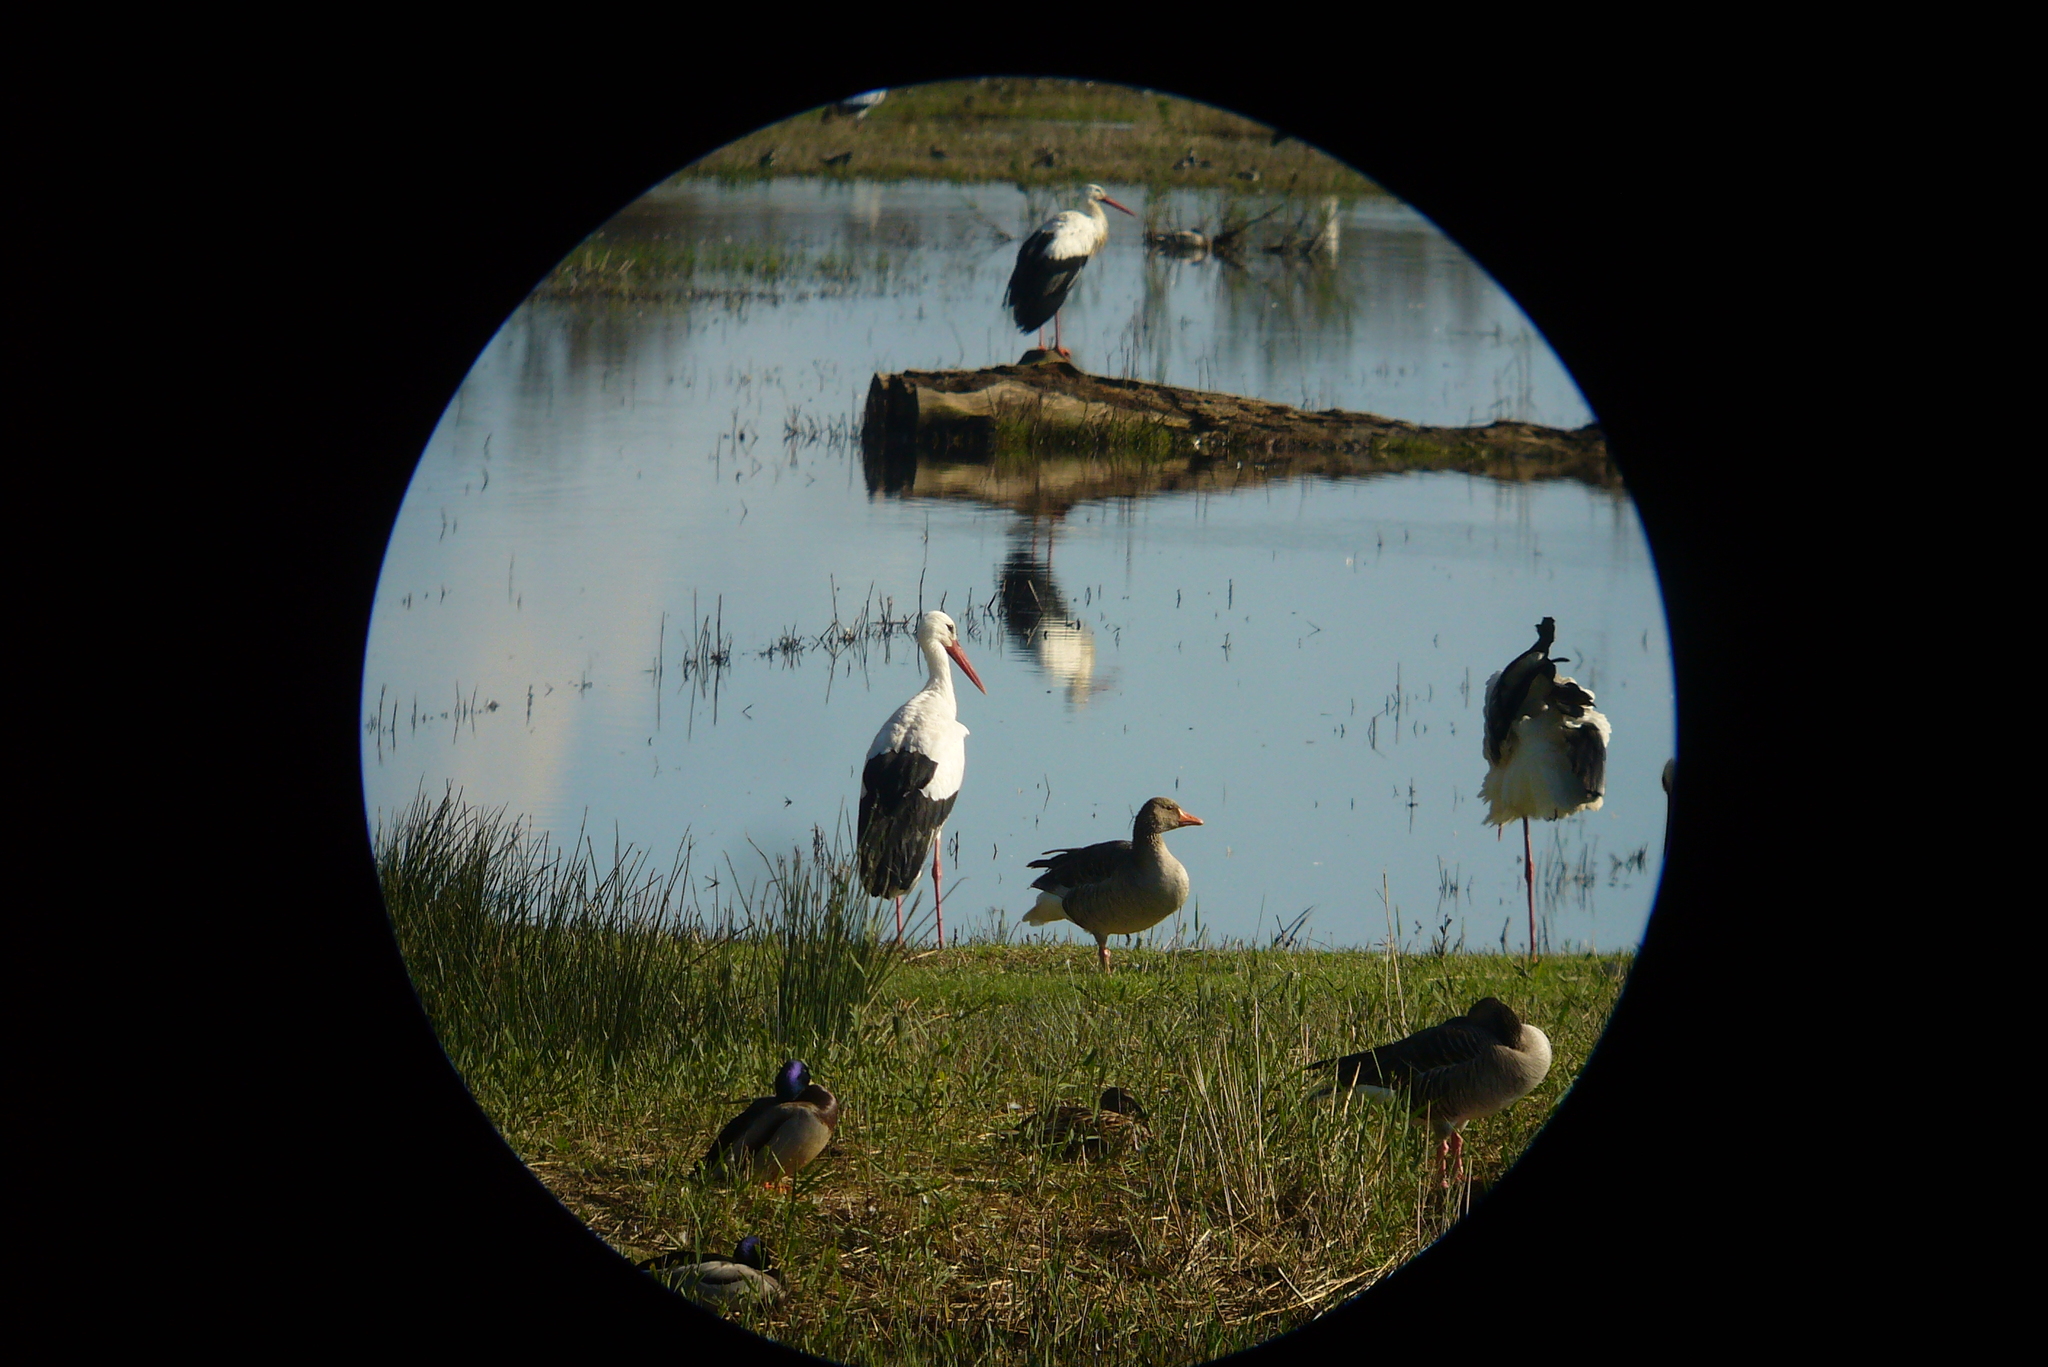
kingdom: Animalia
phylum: Chordata
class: Aves
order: Ciconiiformes
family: Ciconiidae
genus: Ciconia
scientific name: Ciconia ciconia
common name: White stork
